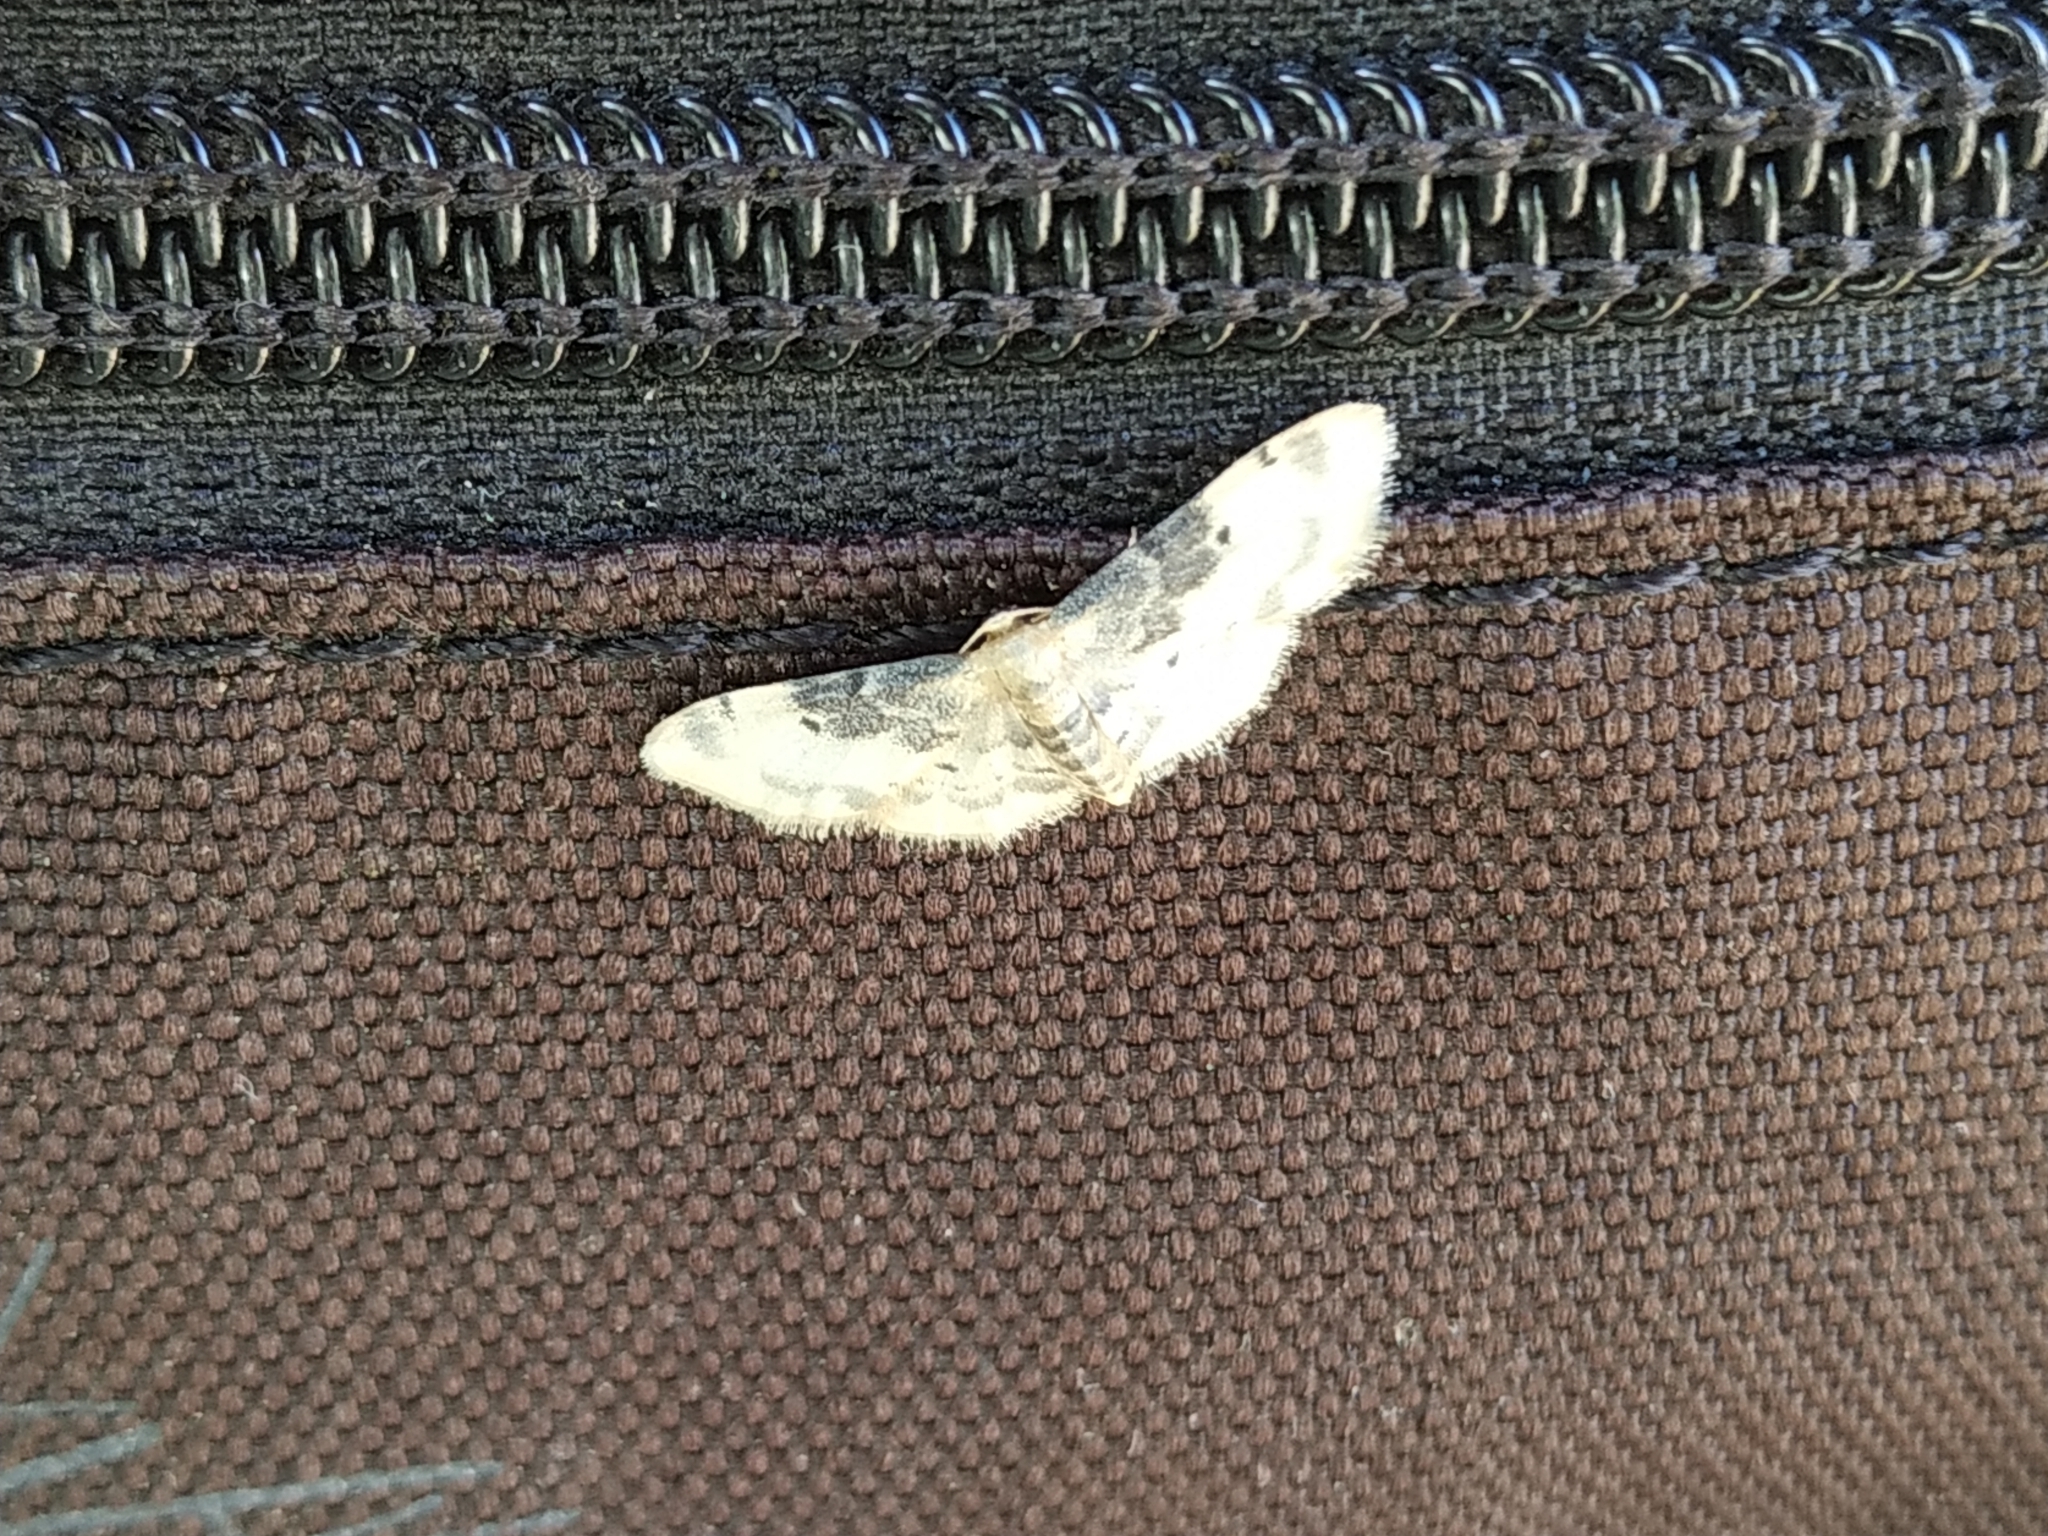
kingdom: Animalia
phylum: Arthropoda
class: Insecta
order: Lepidoptera
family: Geometridae
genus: Idaea
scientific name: Idaea filicata
